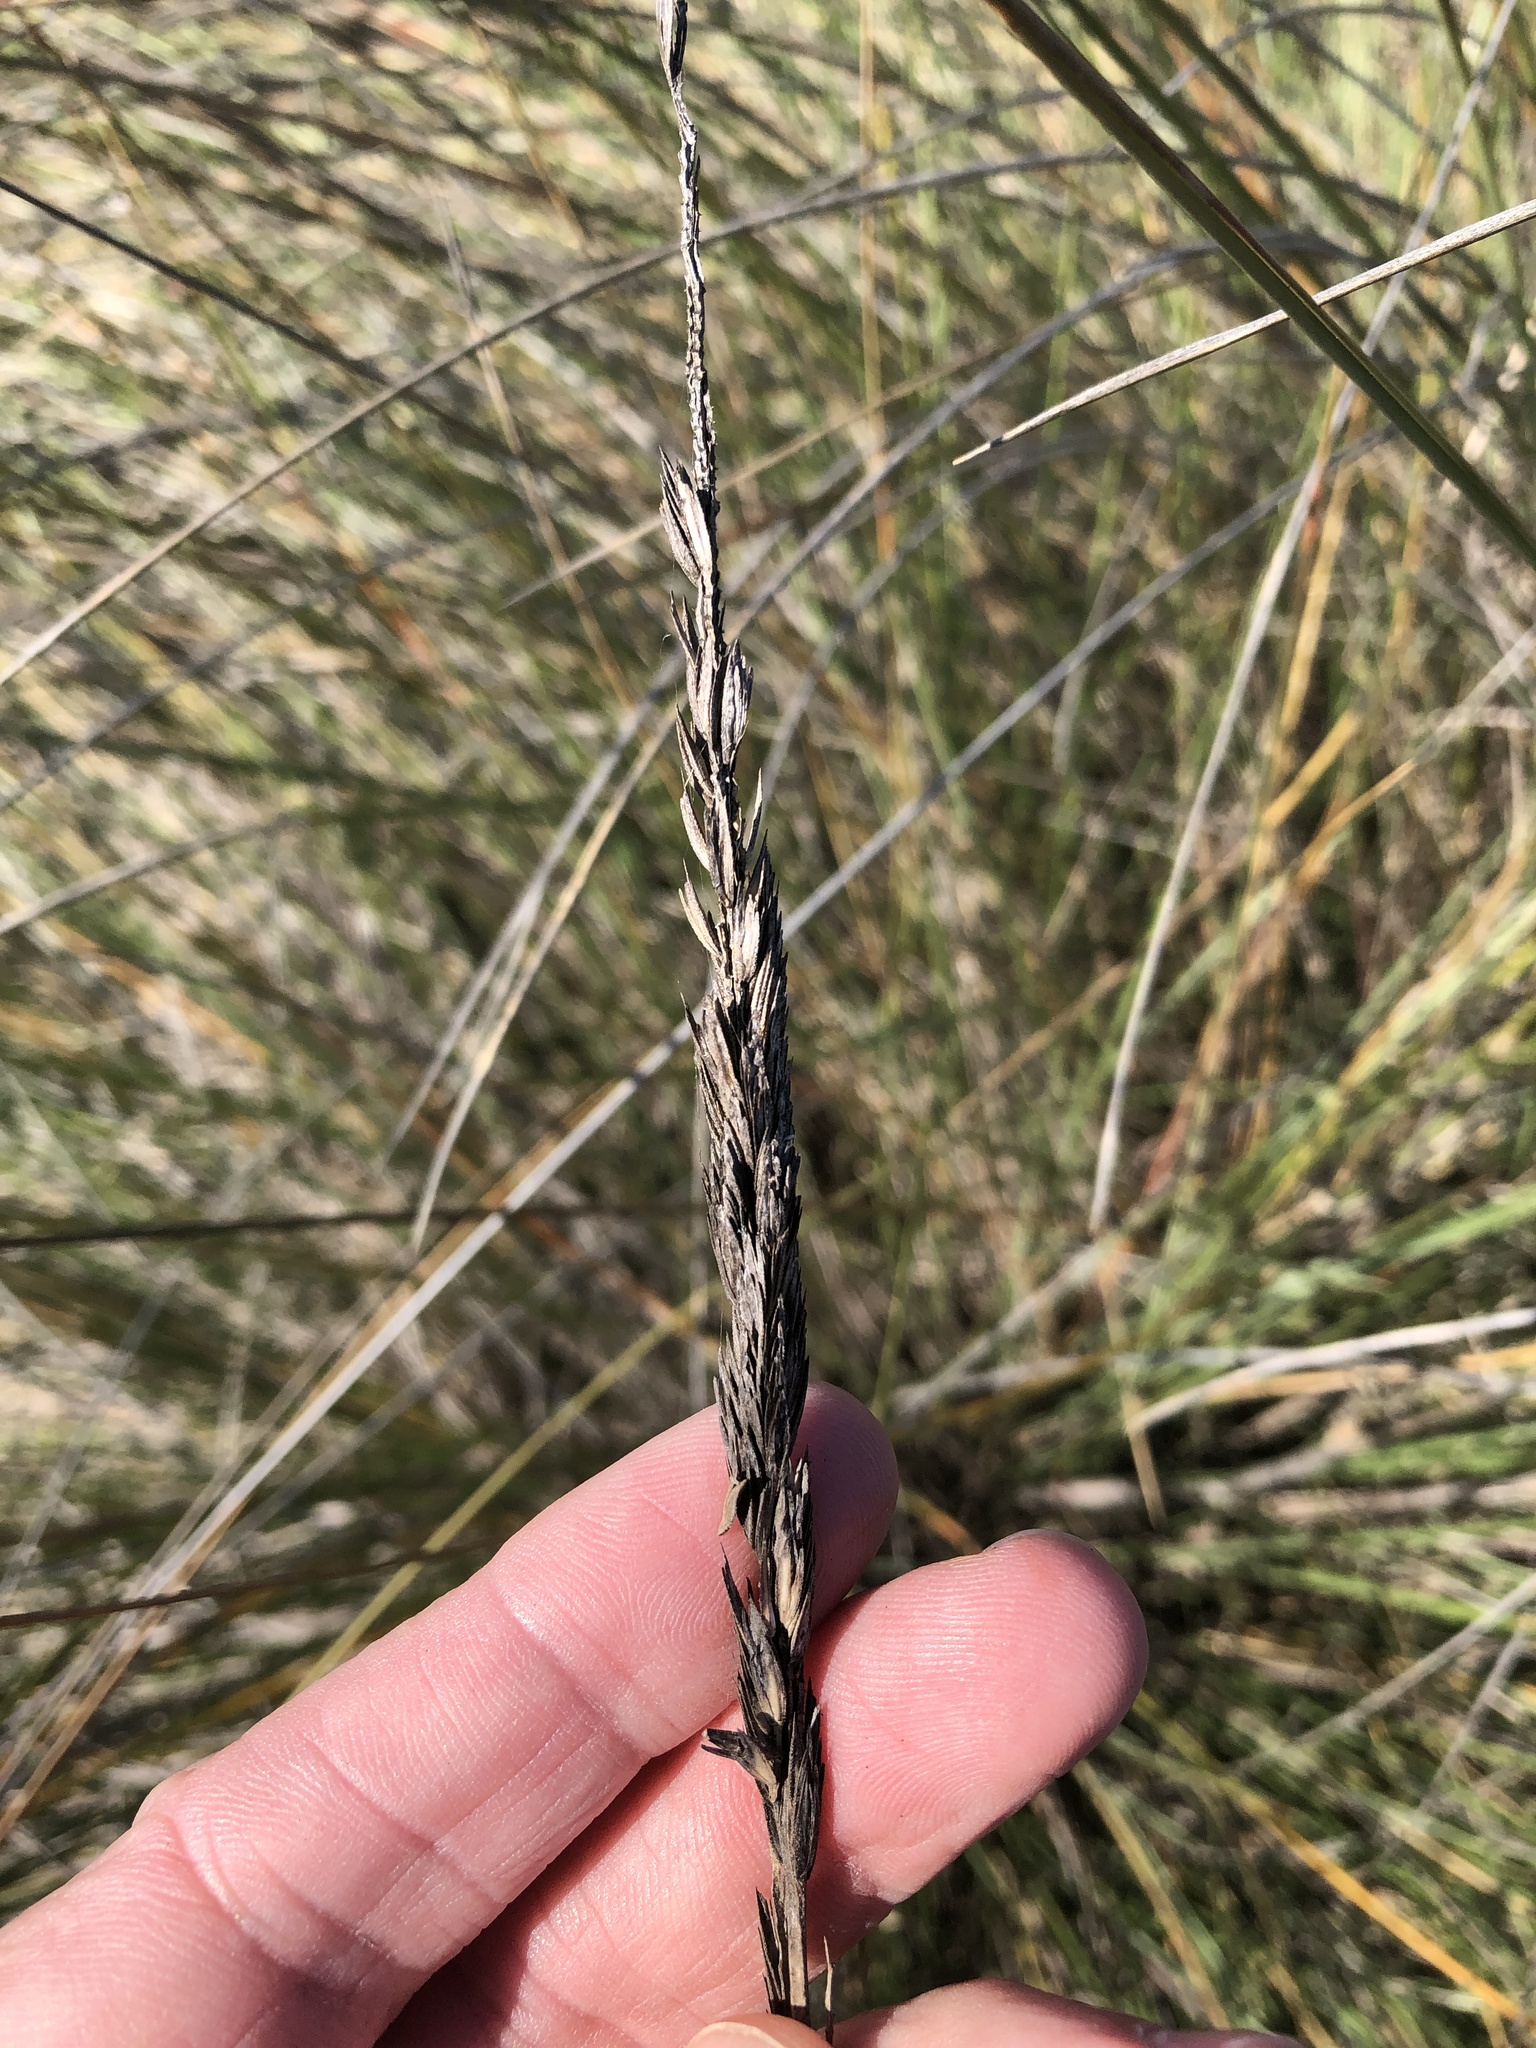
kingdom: Plantae
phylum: Tracheophyta
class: Liliopsida
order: Poales
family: Poaceae
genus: Sporobolus
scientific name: Sporobolus spartinae
